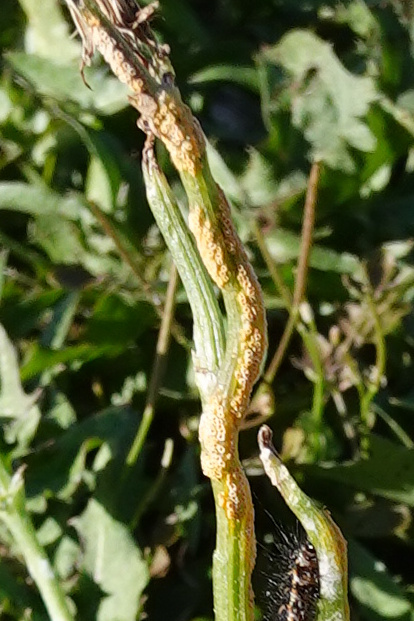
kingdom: Fungi
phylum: Basidiomycota
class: Pucciniomycetes
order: Pucciniales
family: Pucciniaceae
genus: Puccinia
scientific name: Puccinia lagenophorae
